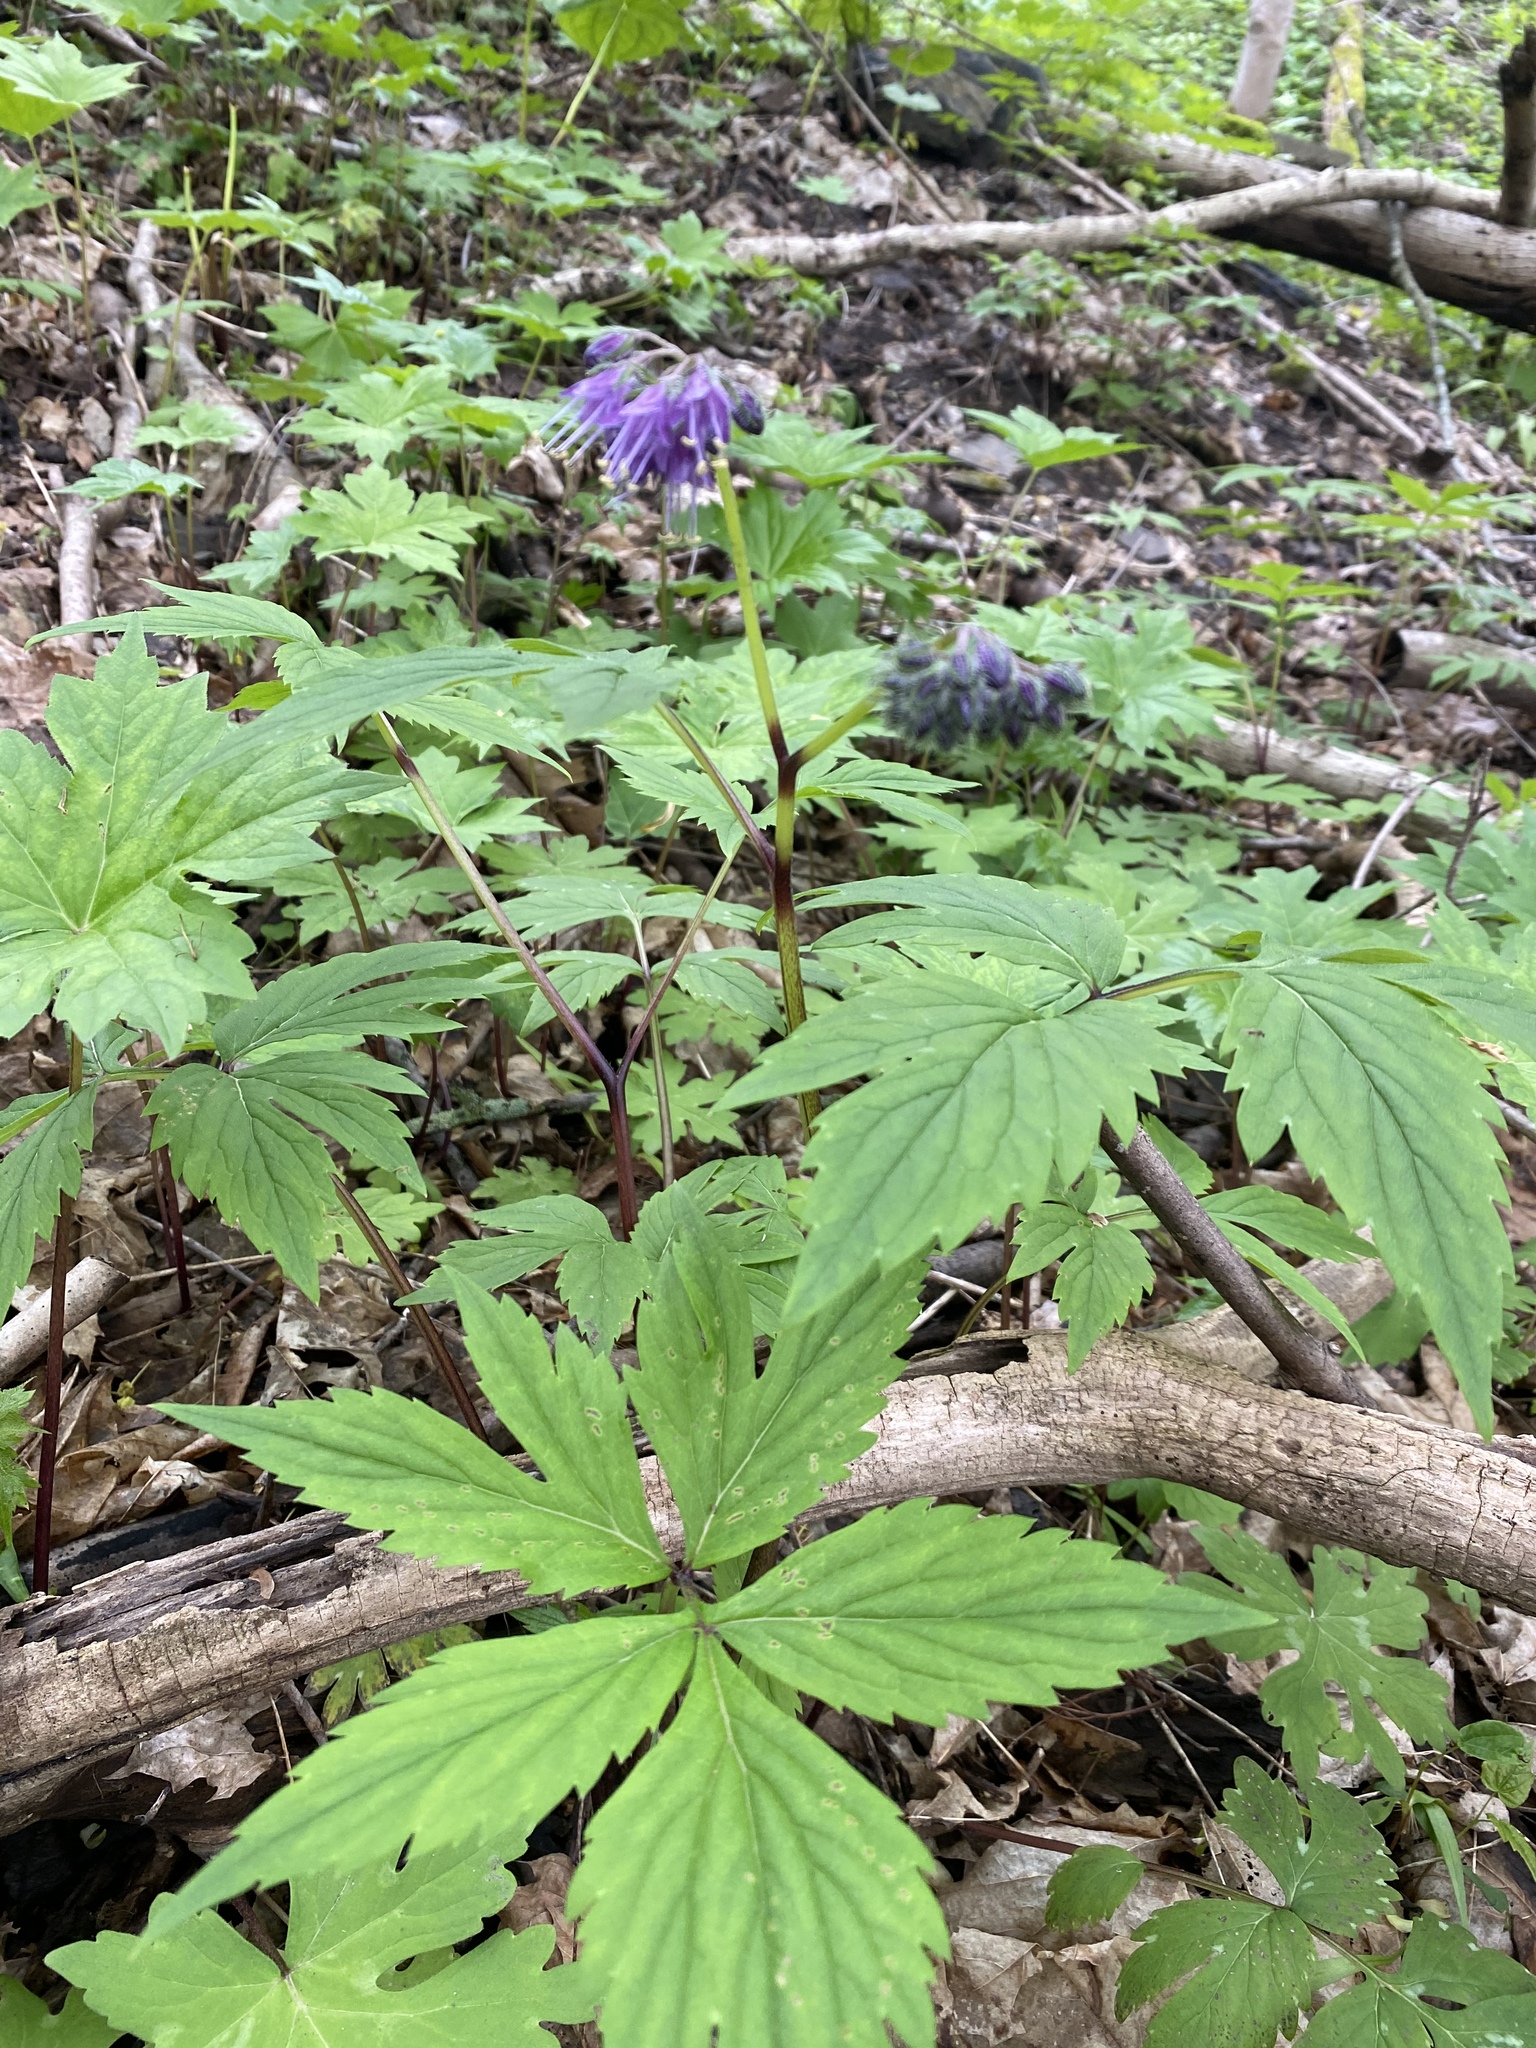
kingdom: Plantae
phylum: Tracheophyta
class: Magnoliopsida
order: Boraginales
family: Hydrophyllaceae
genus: Hydrophyllum
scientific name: Hydrophyllum virginianum
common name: Virginia waterleaf
